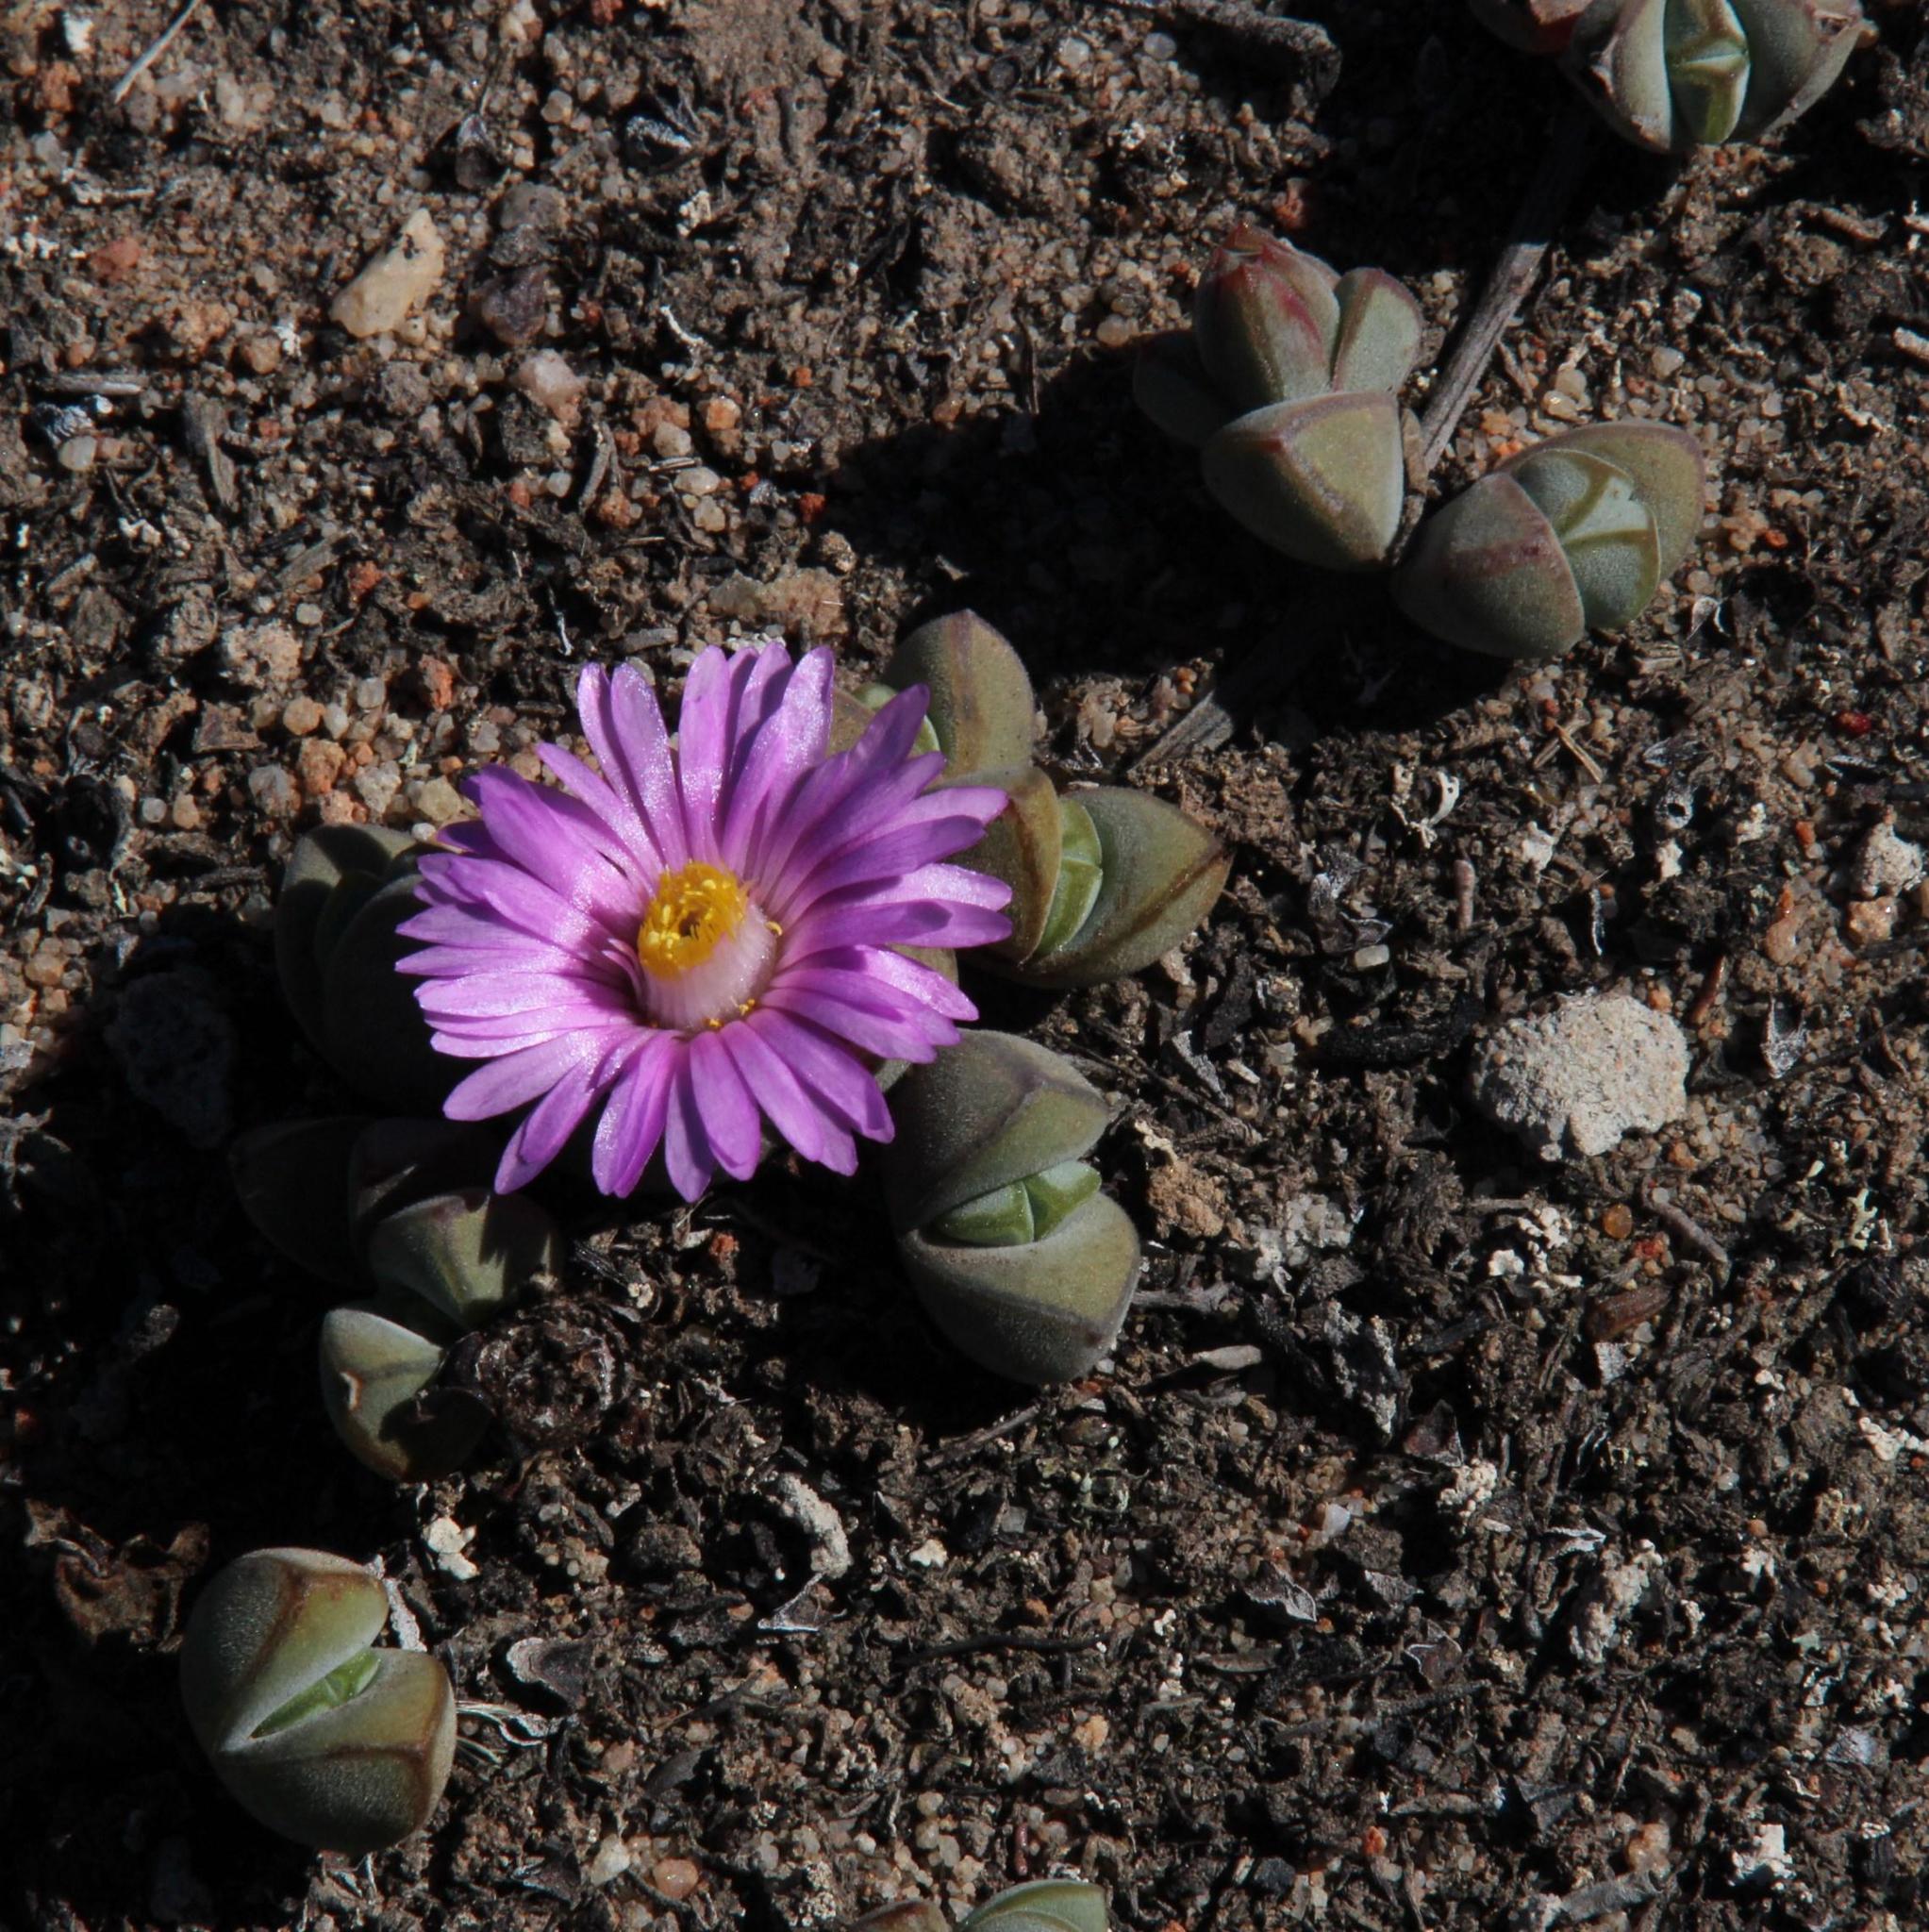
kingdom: Plantae
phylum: Tracheophyta
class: Magnoliopsida
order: Caryophyllales
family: Aizoaceae
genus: Braunsia
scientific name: Braunsia maximiliani
